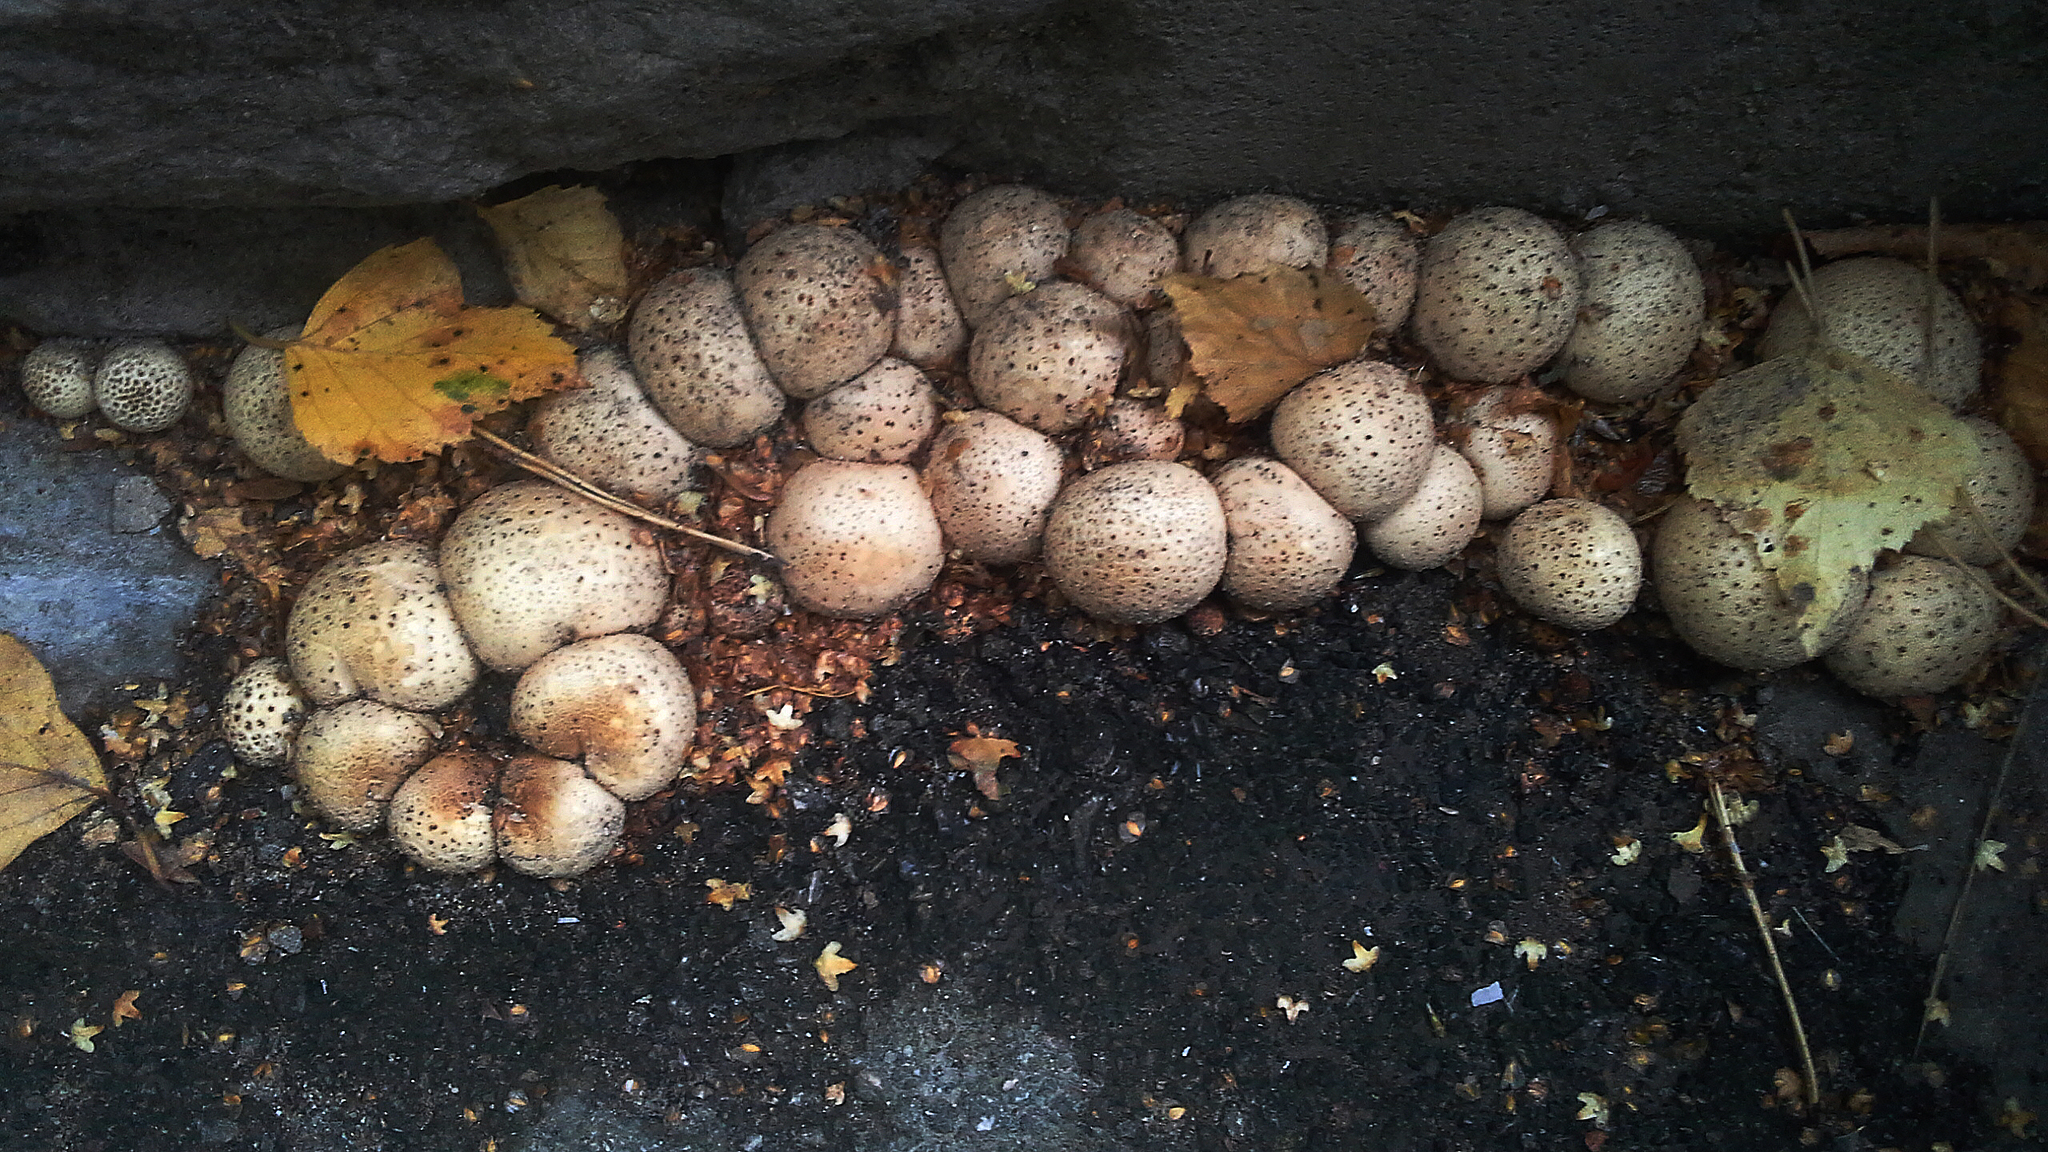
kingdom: Fungi
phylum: Basidiomycota
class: Agaricomycetes
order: Agaricales
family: Lycoperdaceae
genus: Apioperdon
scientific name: Apioperdon pyriforme
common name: Pear-shaped puffball
